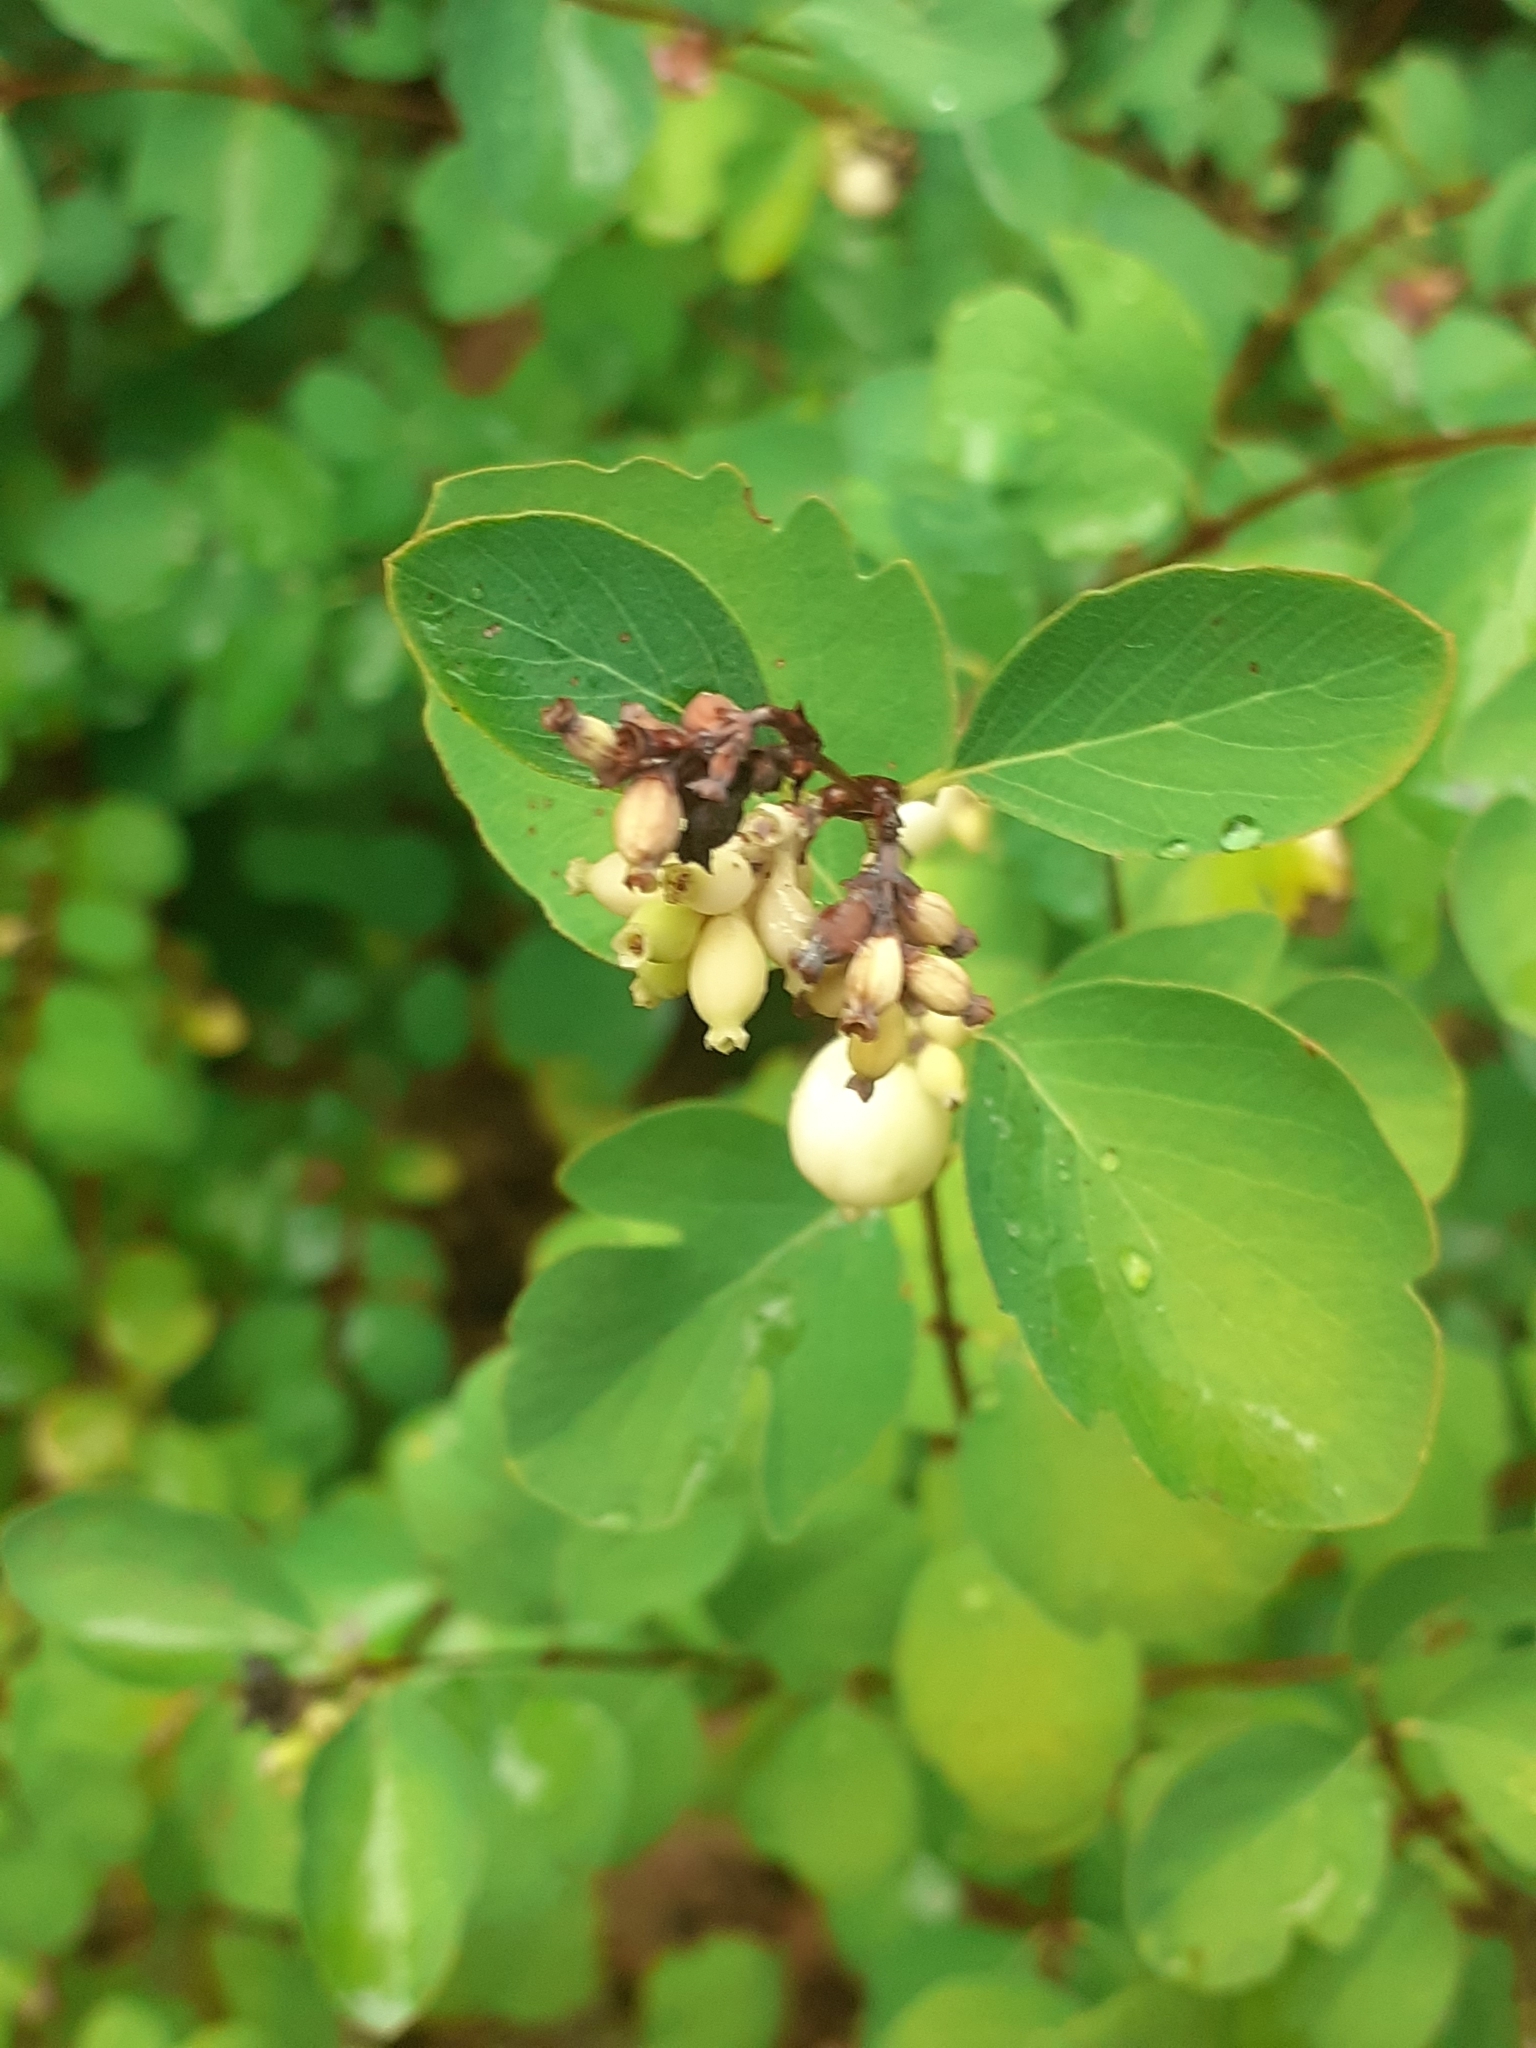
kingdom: Plantae
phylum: Tracheophyta
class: Magnoliopsida
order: Dipsacales
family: Caprifoliaceae
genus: Symphoricarpos
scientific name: Symphoricarpos albus
